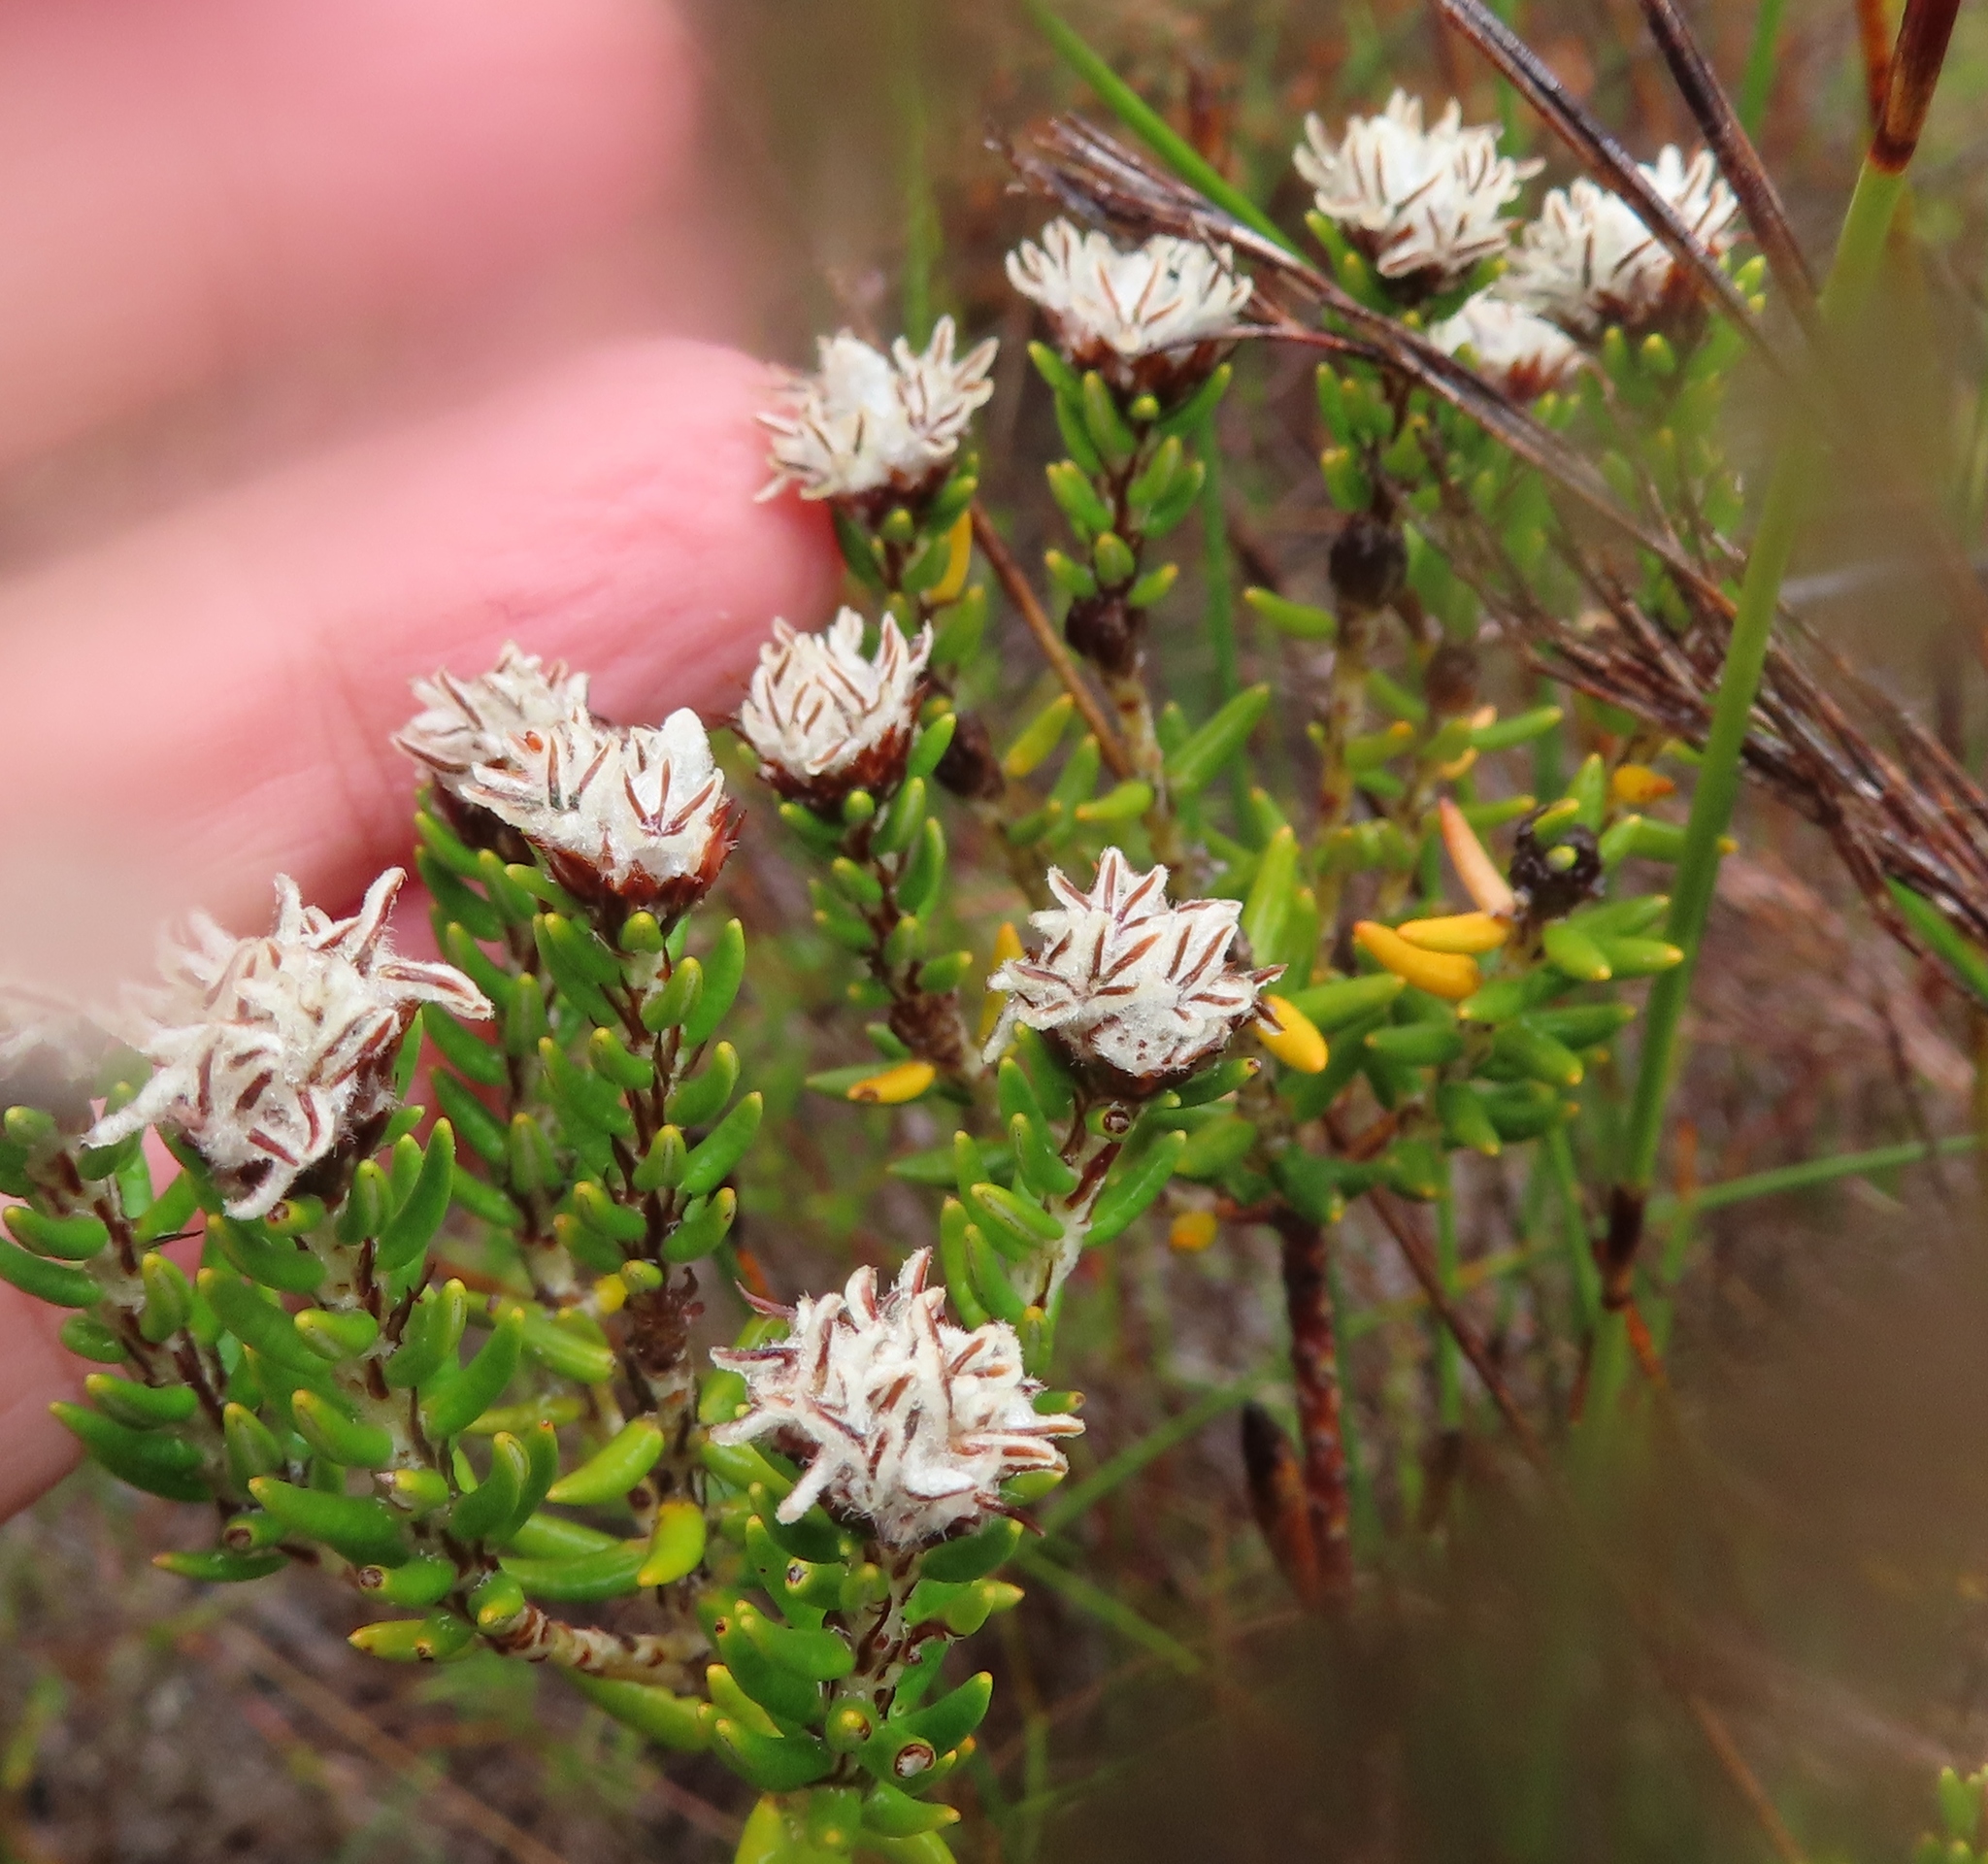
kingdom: Plantae
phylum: Tracheophyta
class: Magnoliopsida
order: Rosales
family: Rhamnaceae
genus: Trichocephalus
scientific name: Trichocephalus stipularis
